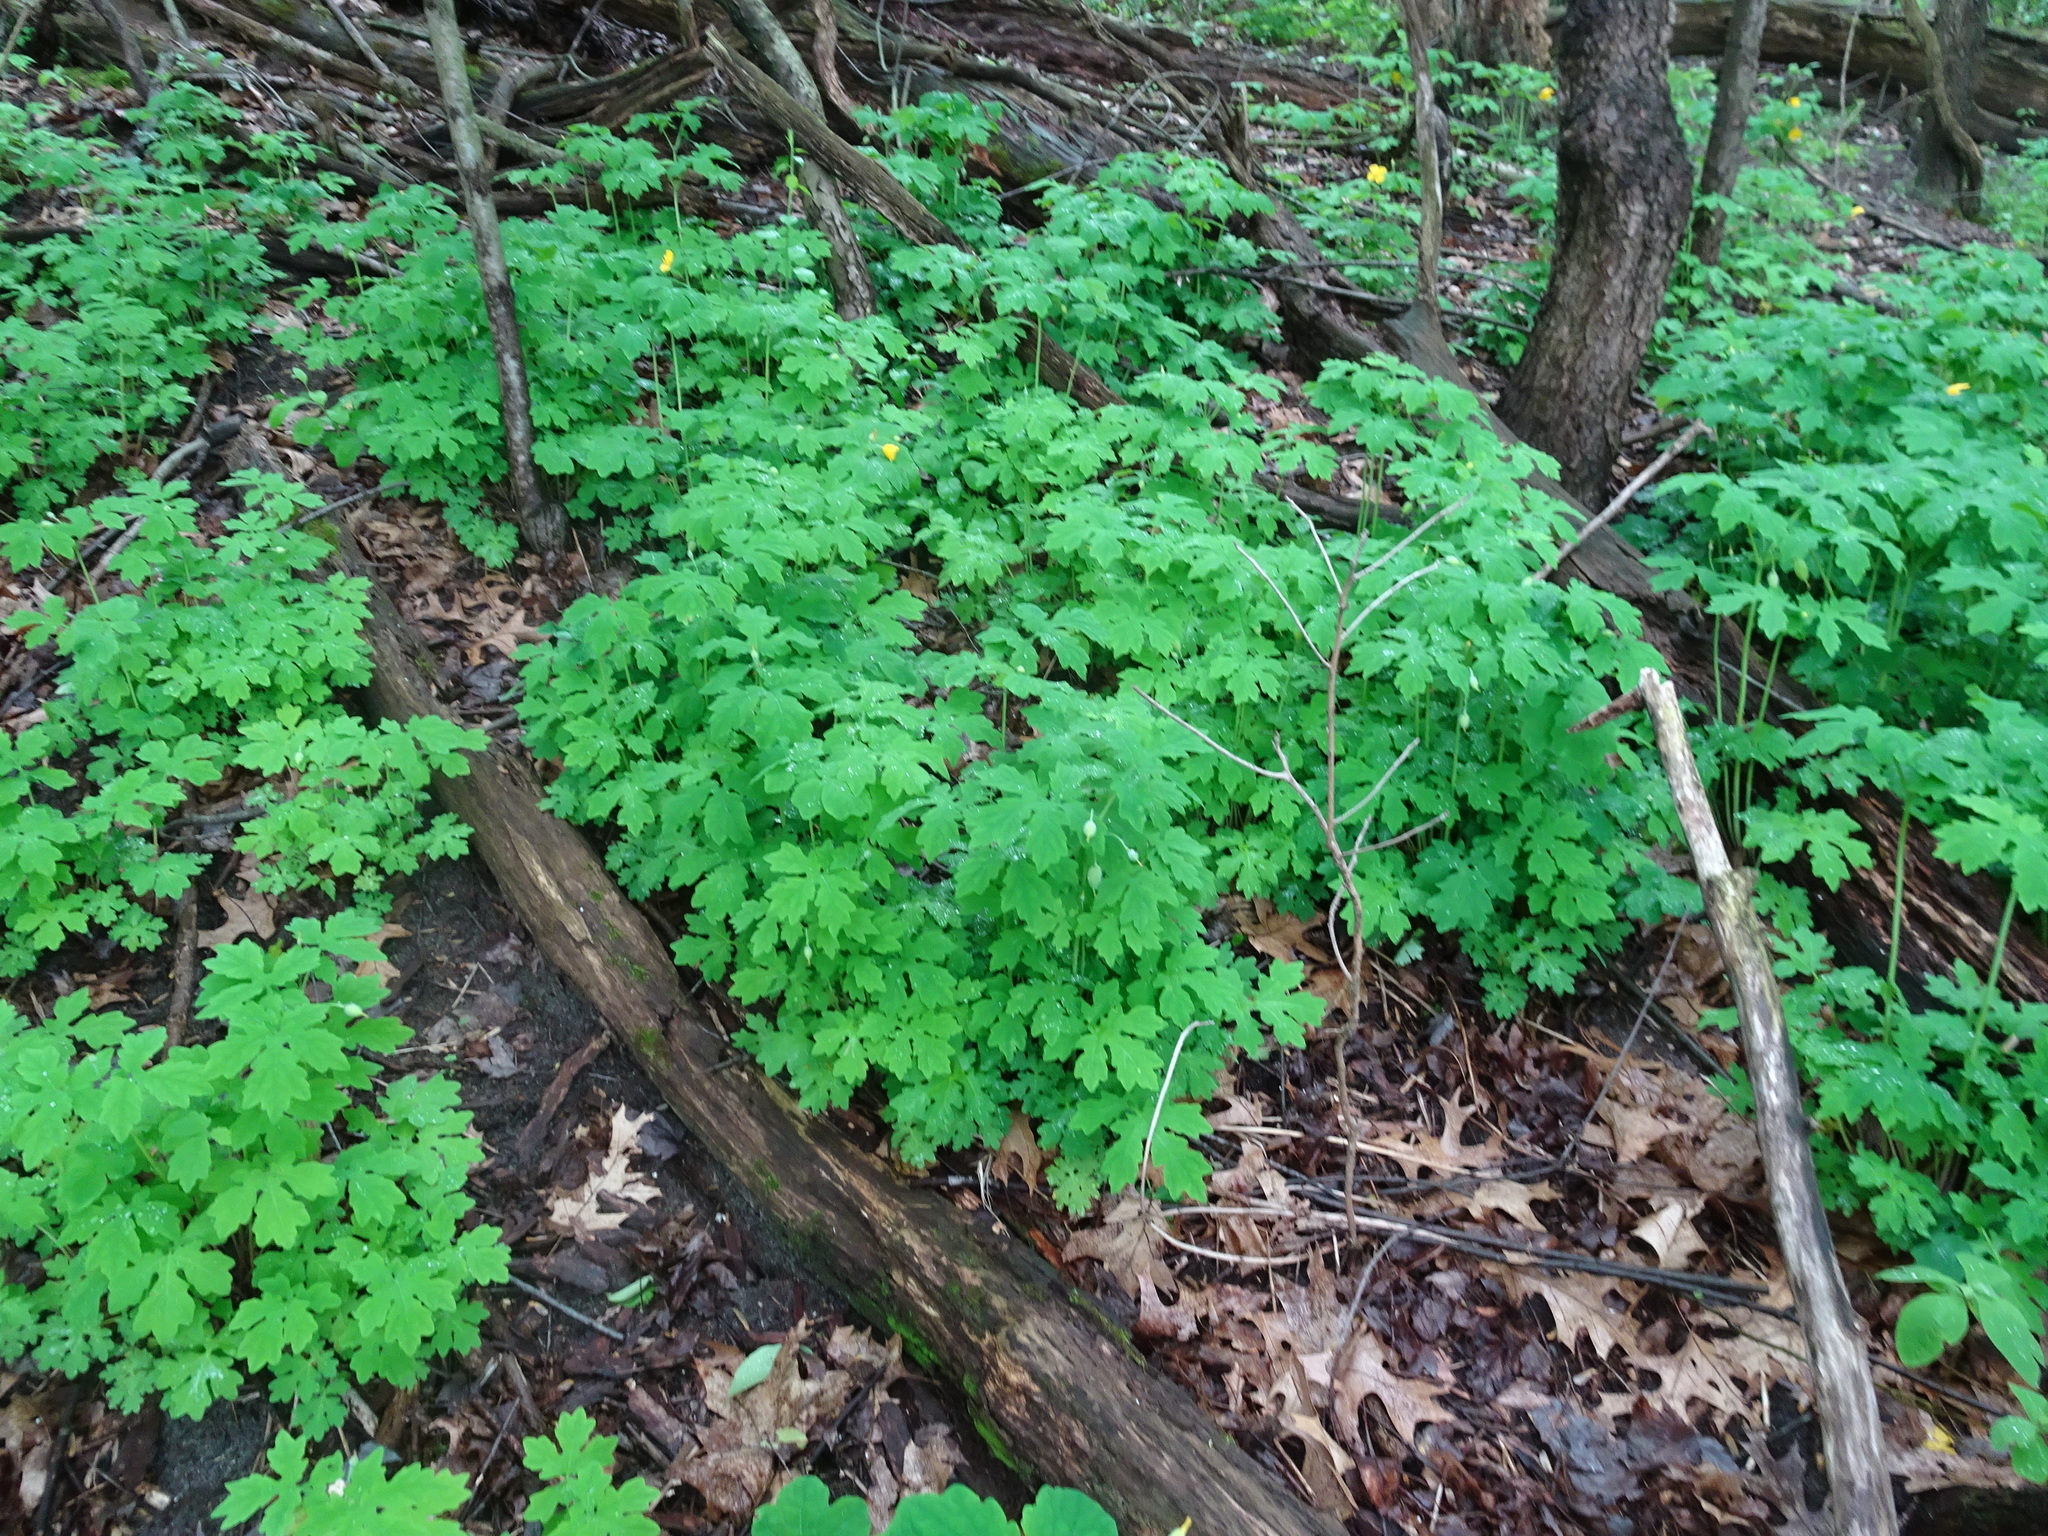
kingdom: Plantae
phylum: Tracheophyta
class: Magnoliopsida
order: Ranunculales
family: Papaveraceae
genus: Stylophorum
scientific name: Stylophorum diphyllum
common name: Celandine poppy
